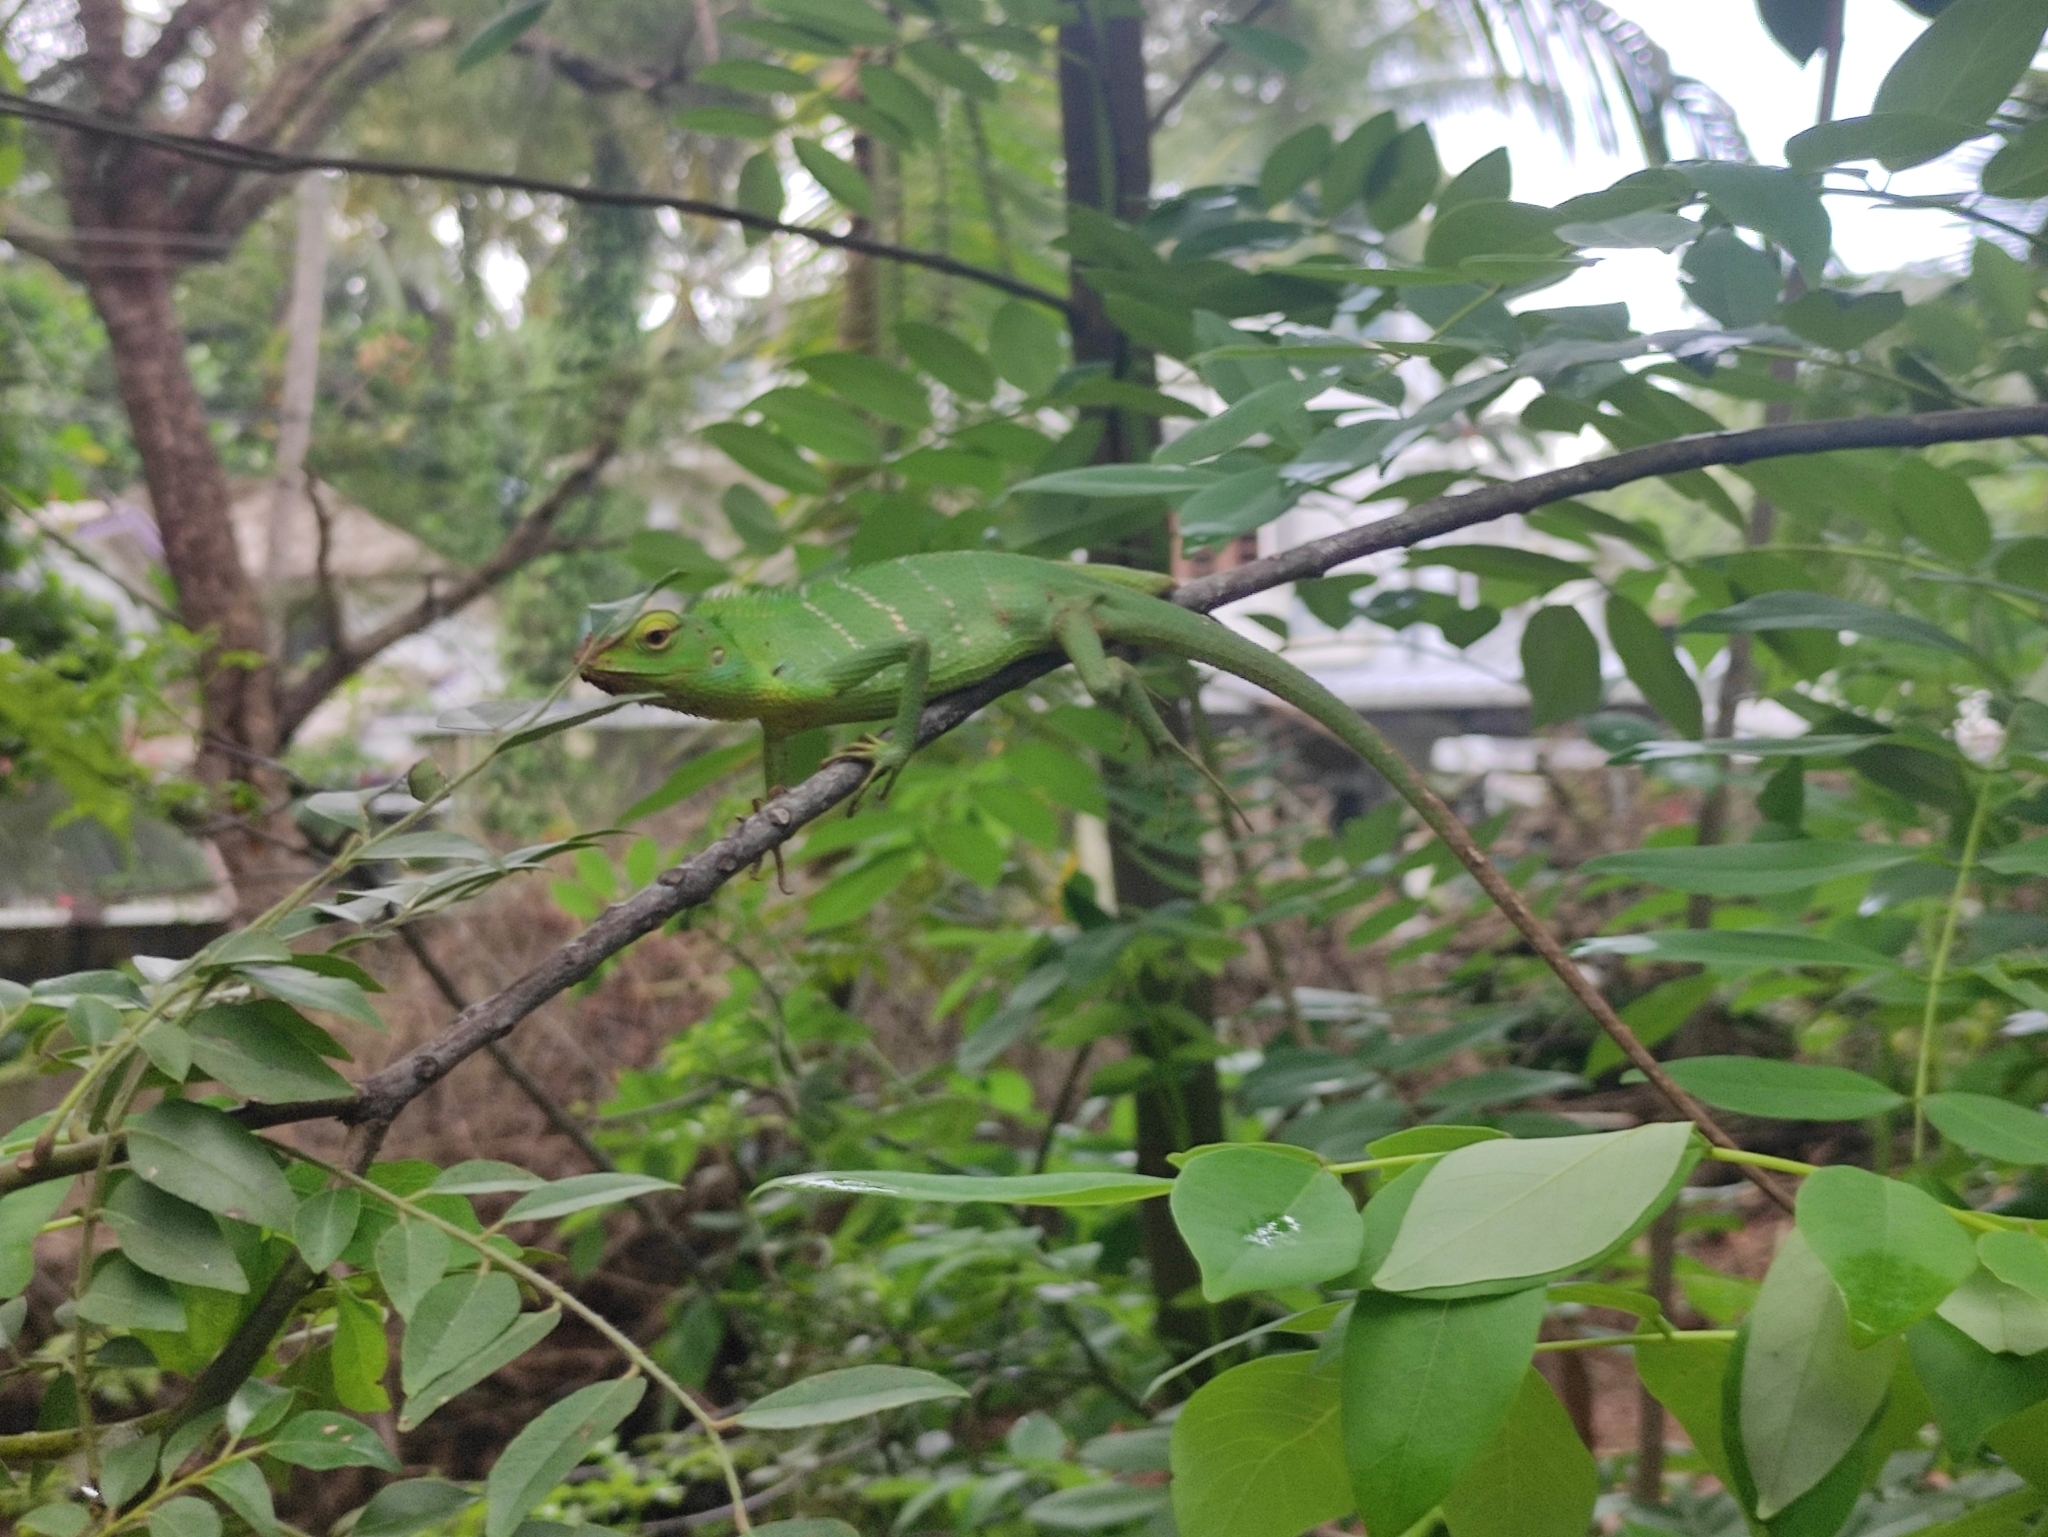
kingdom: Animalia
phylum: Chordata
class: Squamata
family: Agamidae
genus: Calotes
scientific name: Calotes calotes
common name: Common green forest lizard
